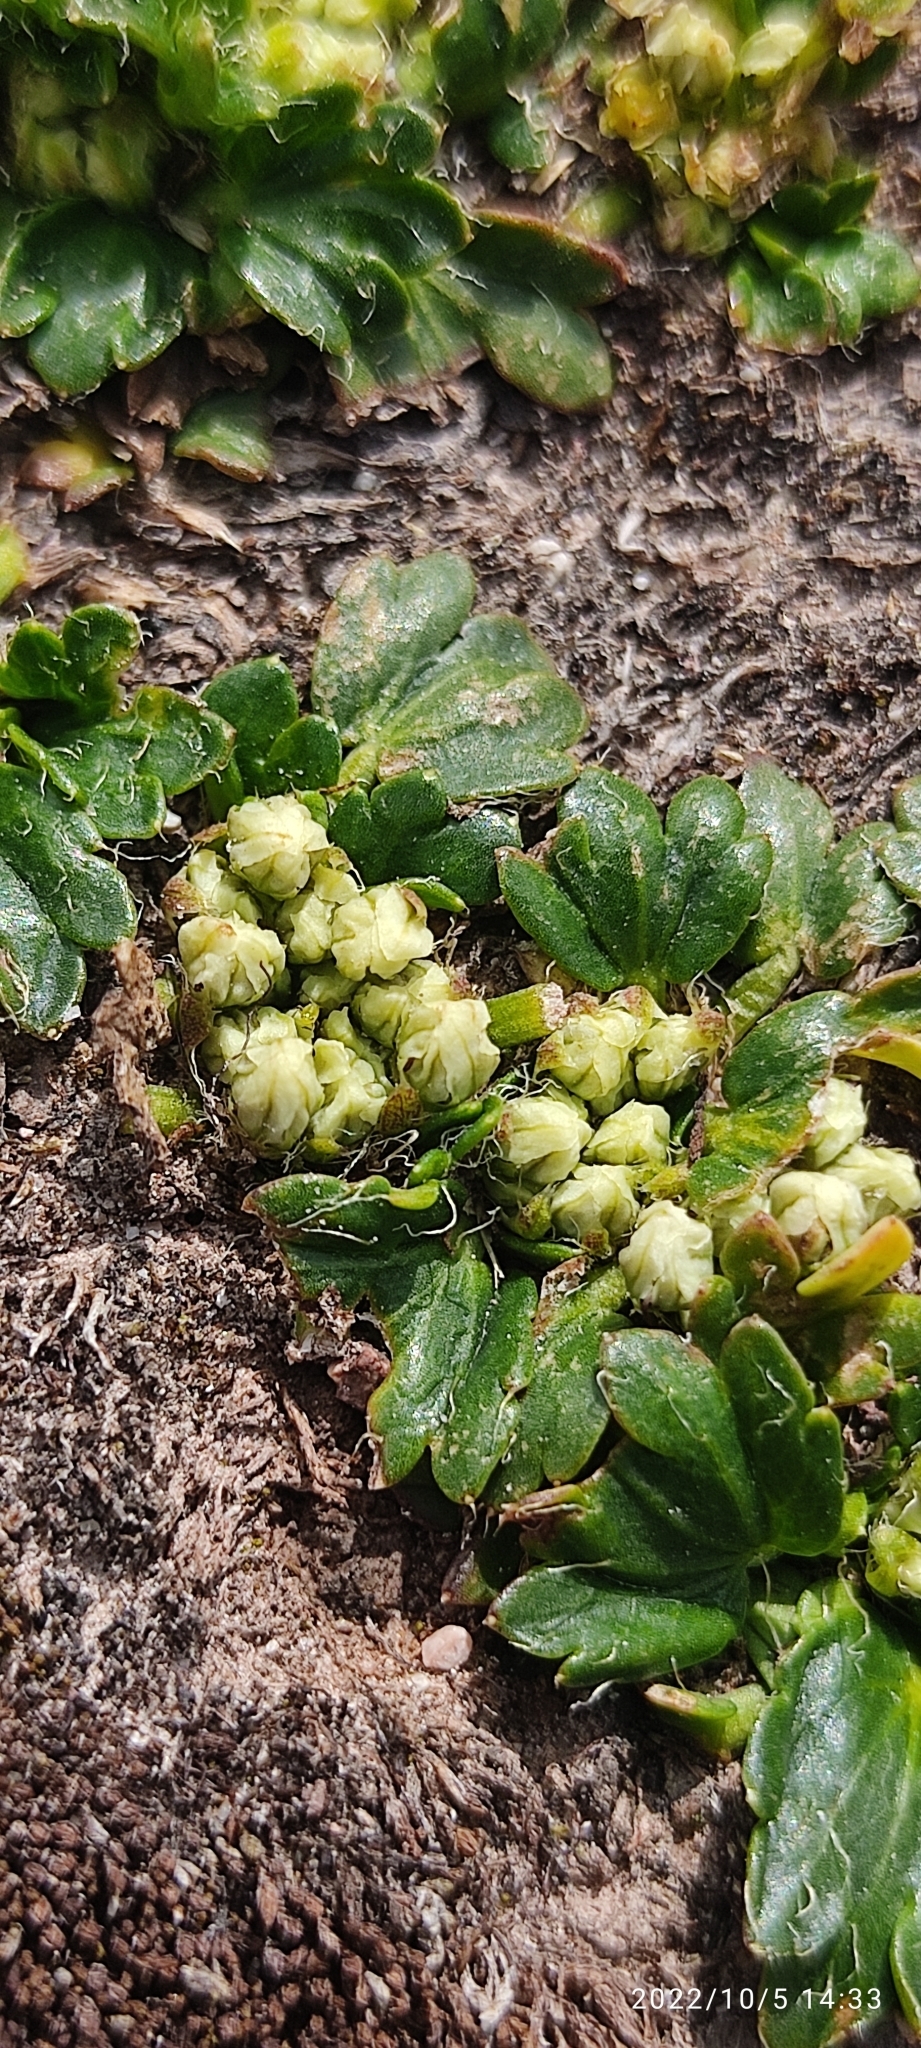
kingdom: Plantae
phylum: Tracheophyta
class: Magnoliopsida
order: Apiales
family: Apiaceae
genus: Azorella
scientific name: Azorella crenata
